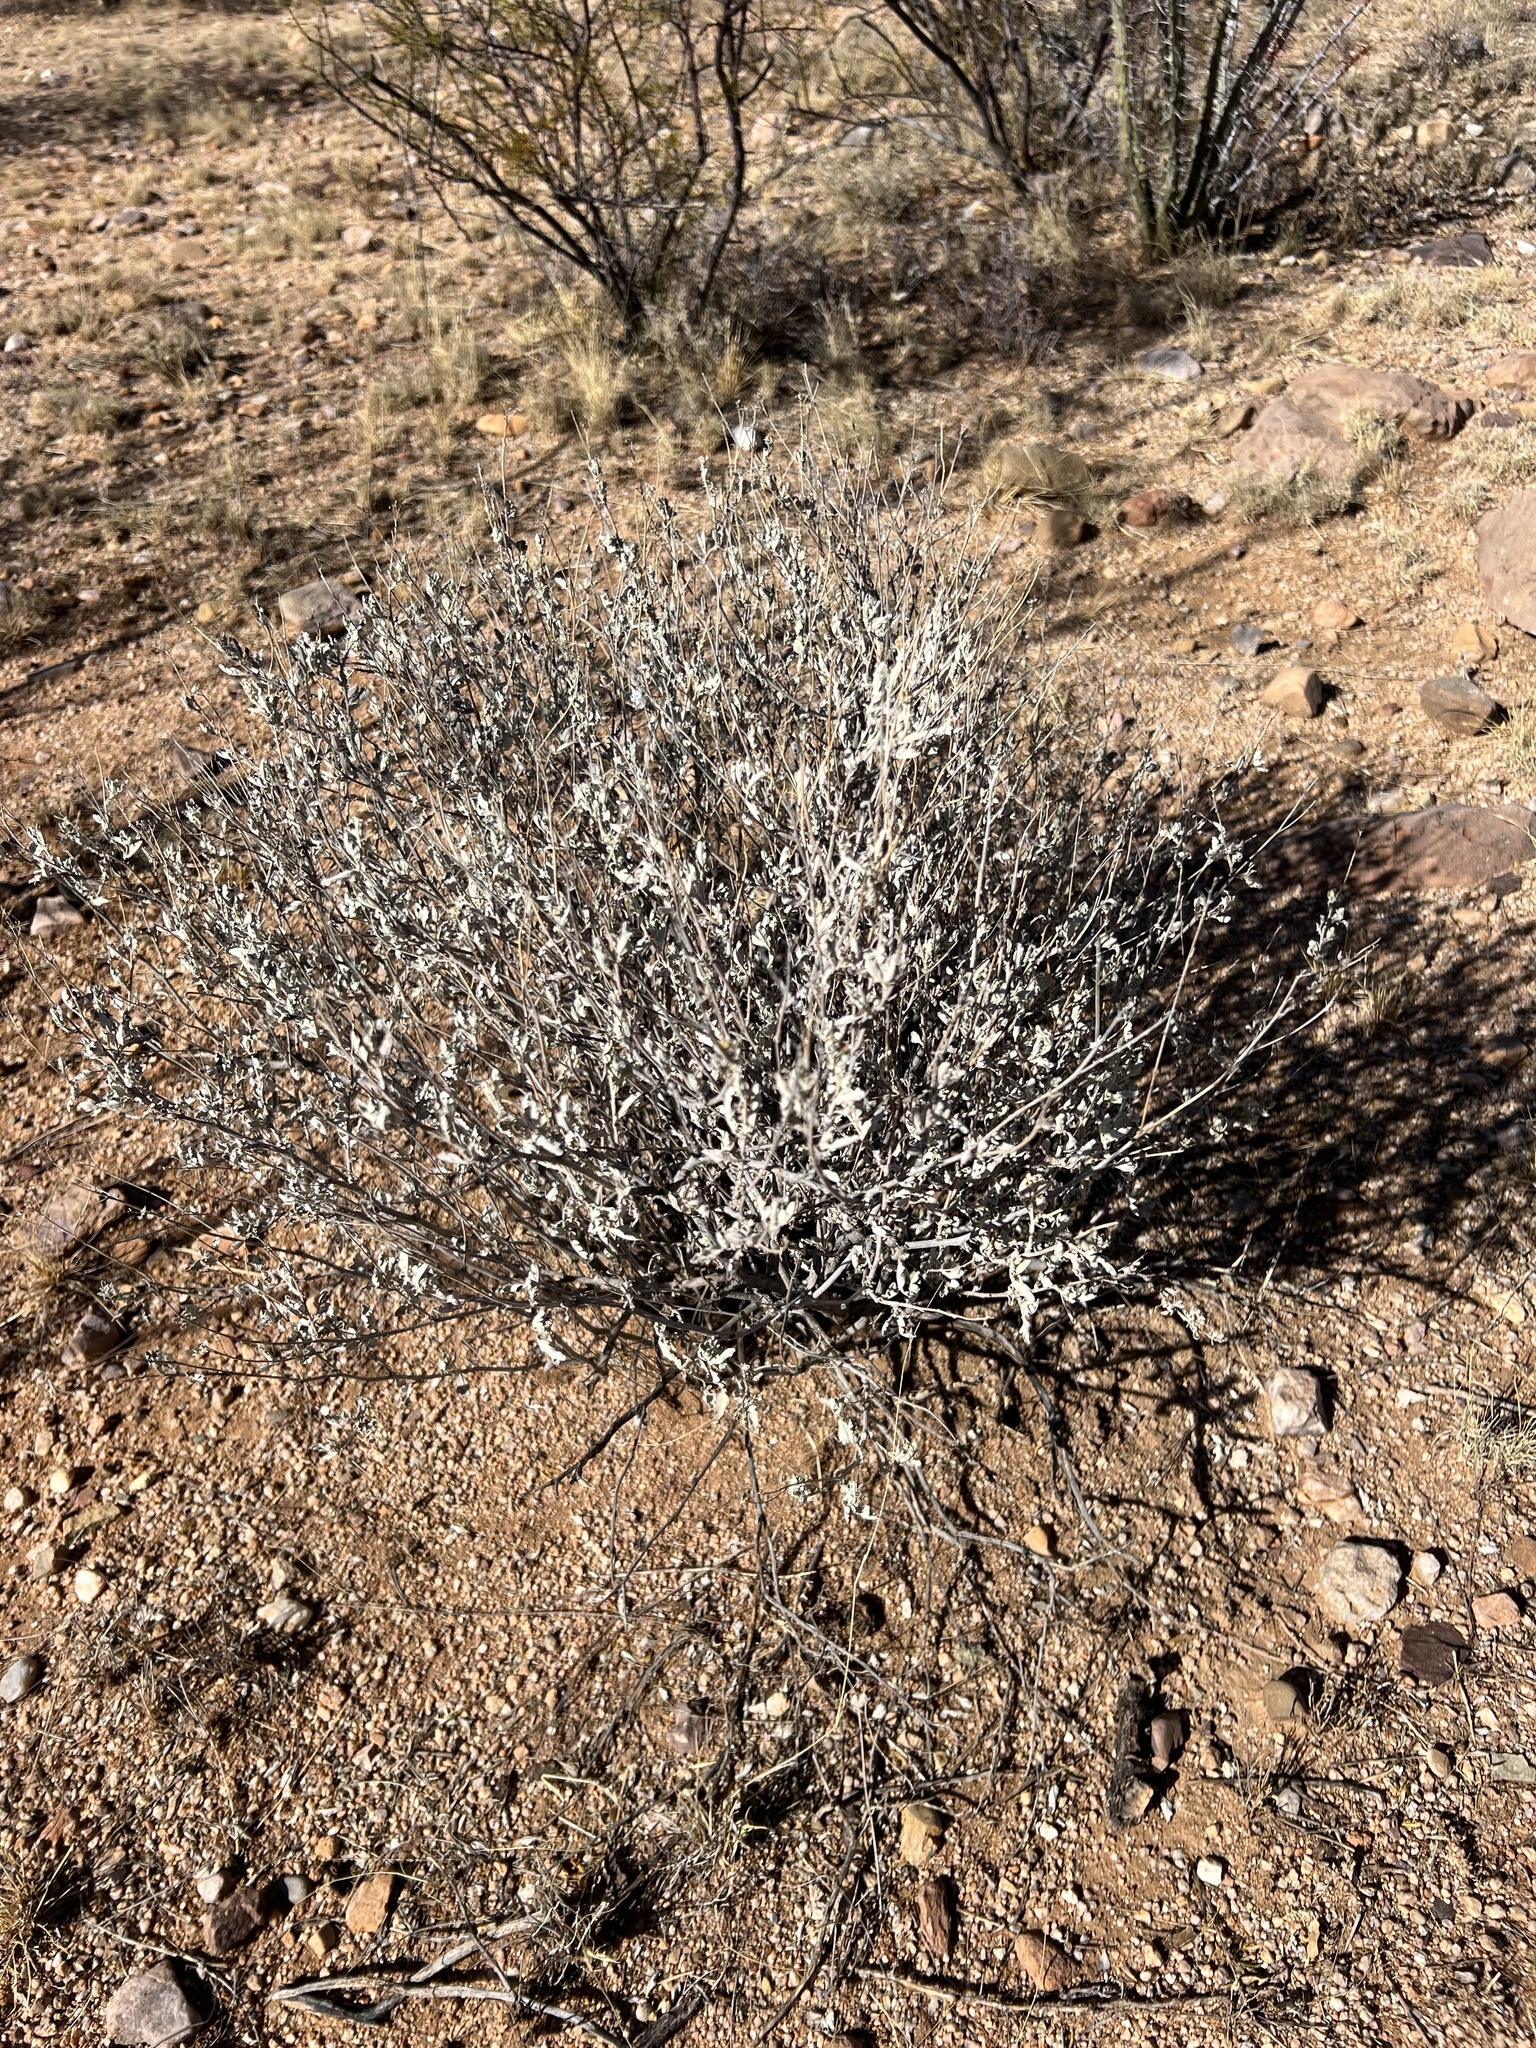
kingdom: Plantae
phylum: Tracheophyta
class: Magnoliopsida
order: Asterales
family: Asteraceae
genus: Parthenium
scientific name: Parthenium incanum
